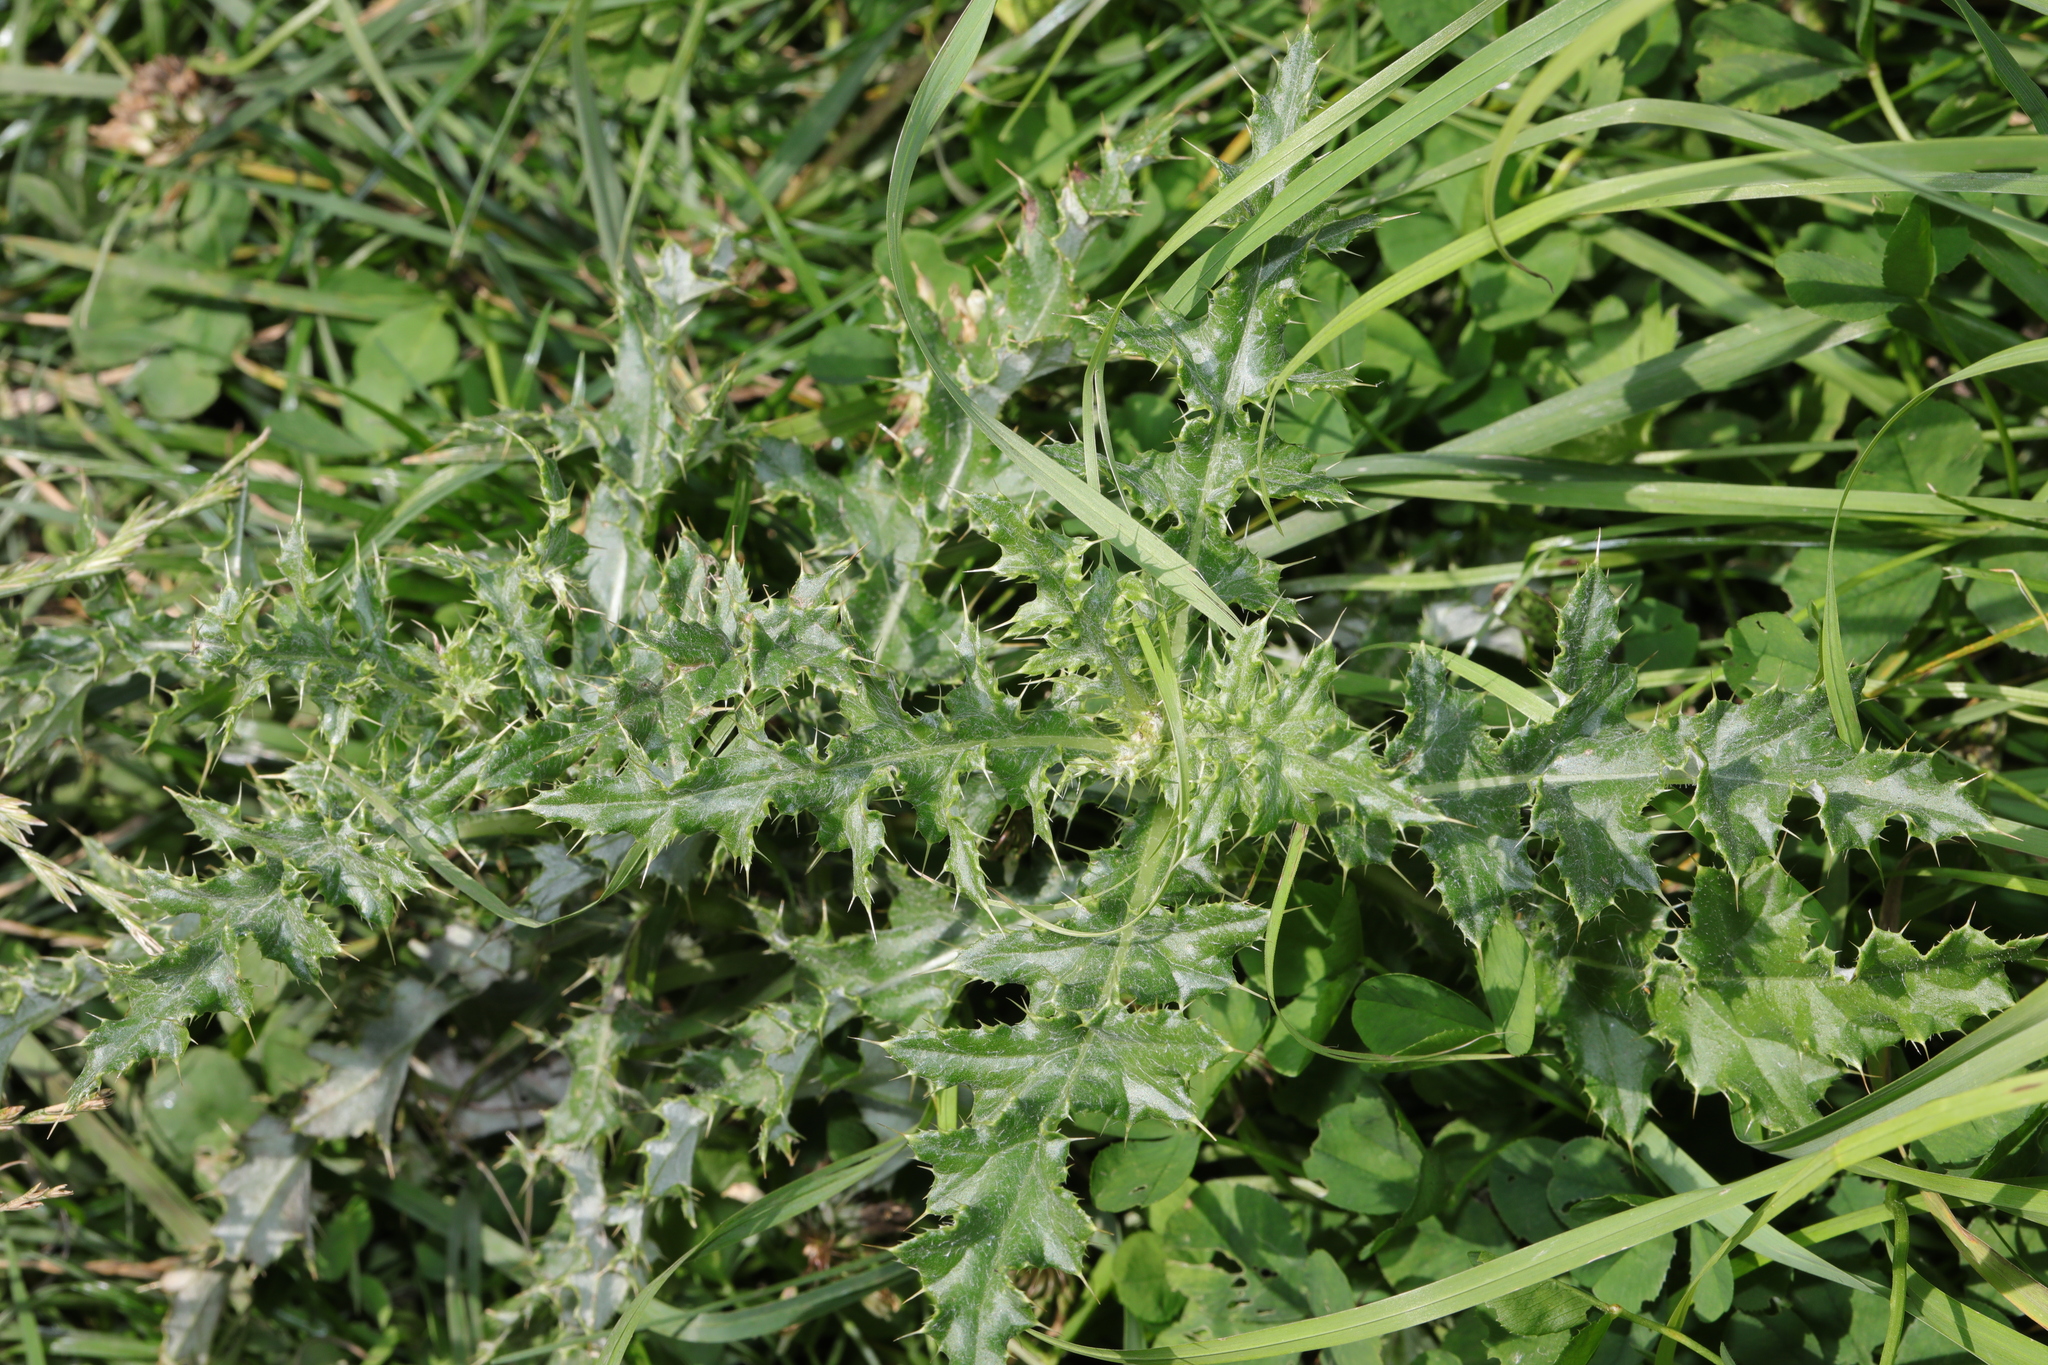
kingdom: Plantae
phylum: Tracheophyta
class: Magnoliopsida
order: Asterales
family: Asteraceae
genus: Cirsium
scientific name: Cirsium arvense
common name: Creeping thistle
